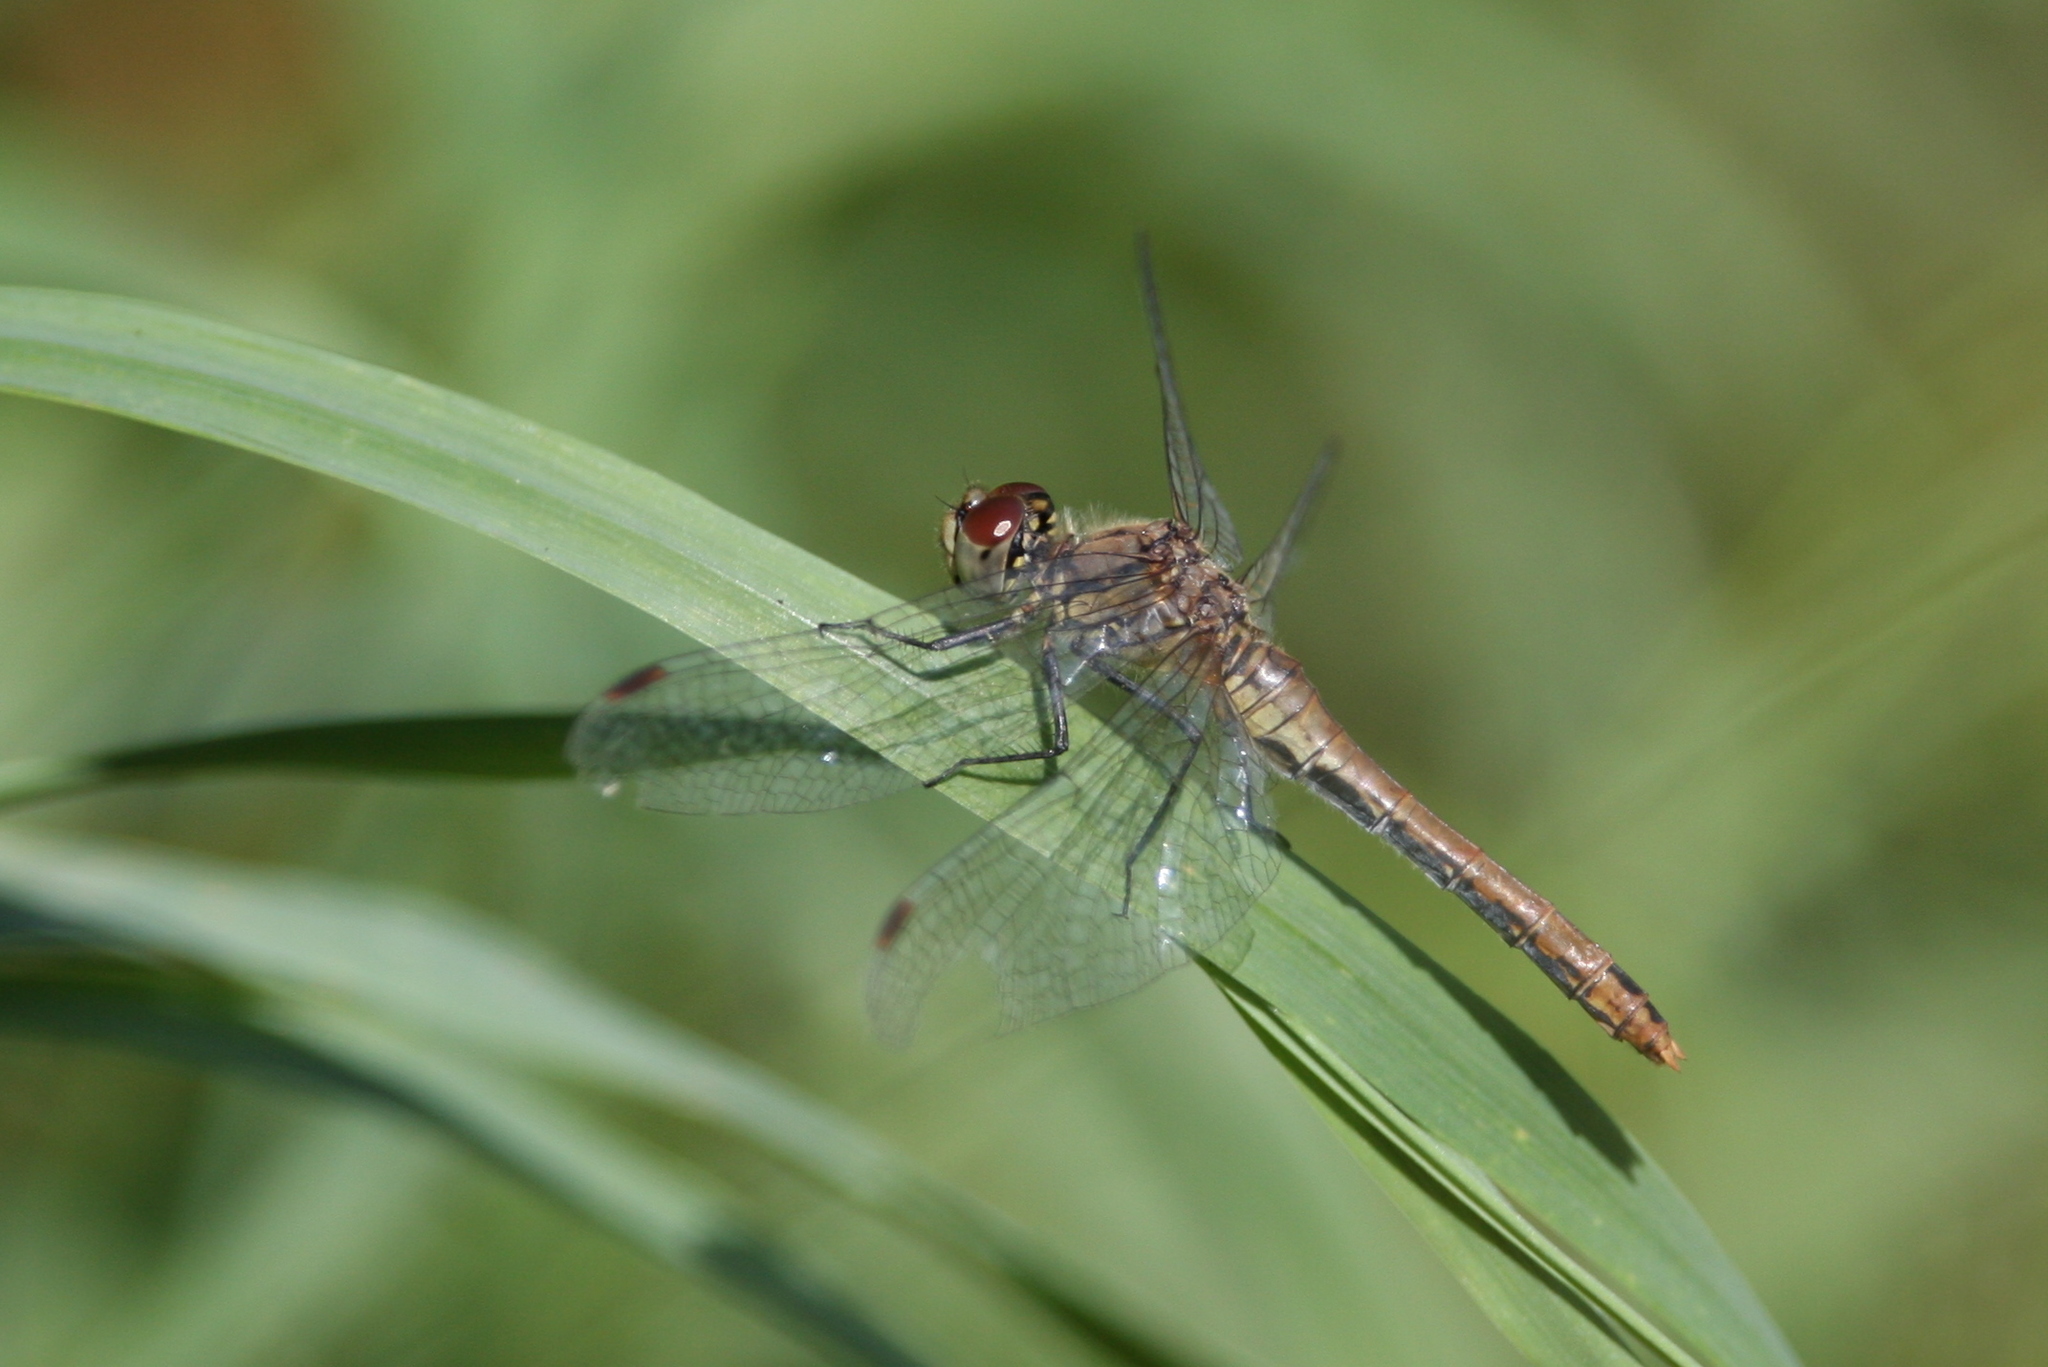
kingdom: Animalia
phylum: Arthropoda
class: Insecta
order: Odonata
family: Libellulidae
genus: Sympetrum
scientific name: Sympetrum sanguineum
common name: Ruddy darter
